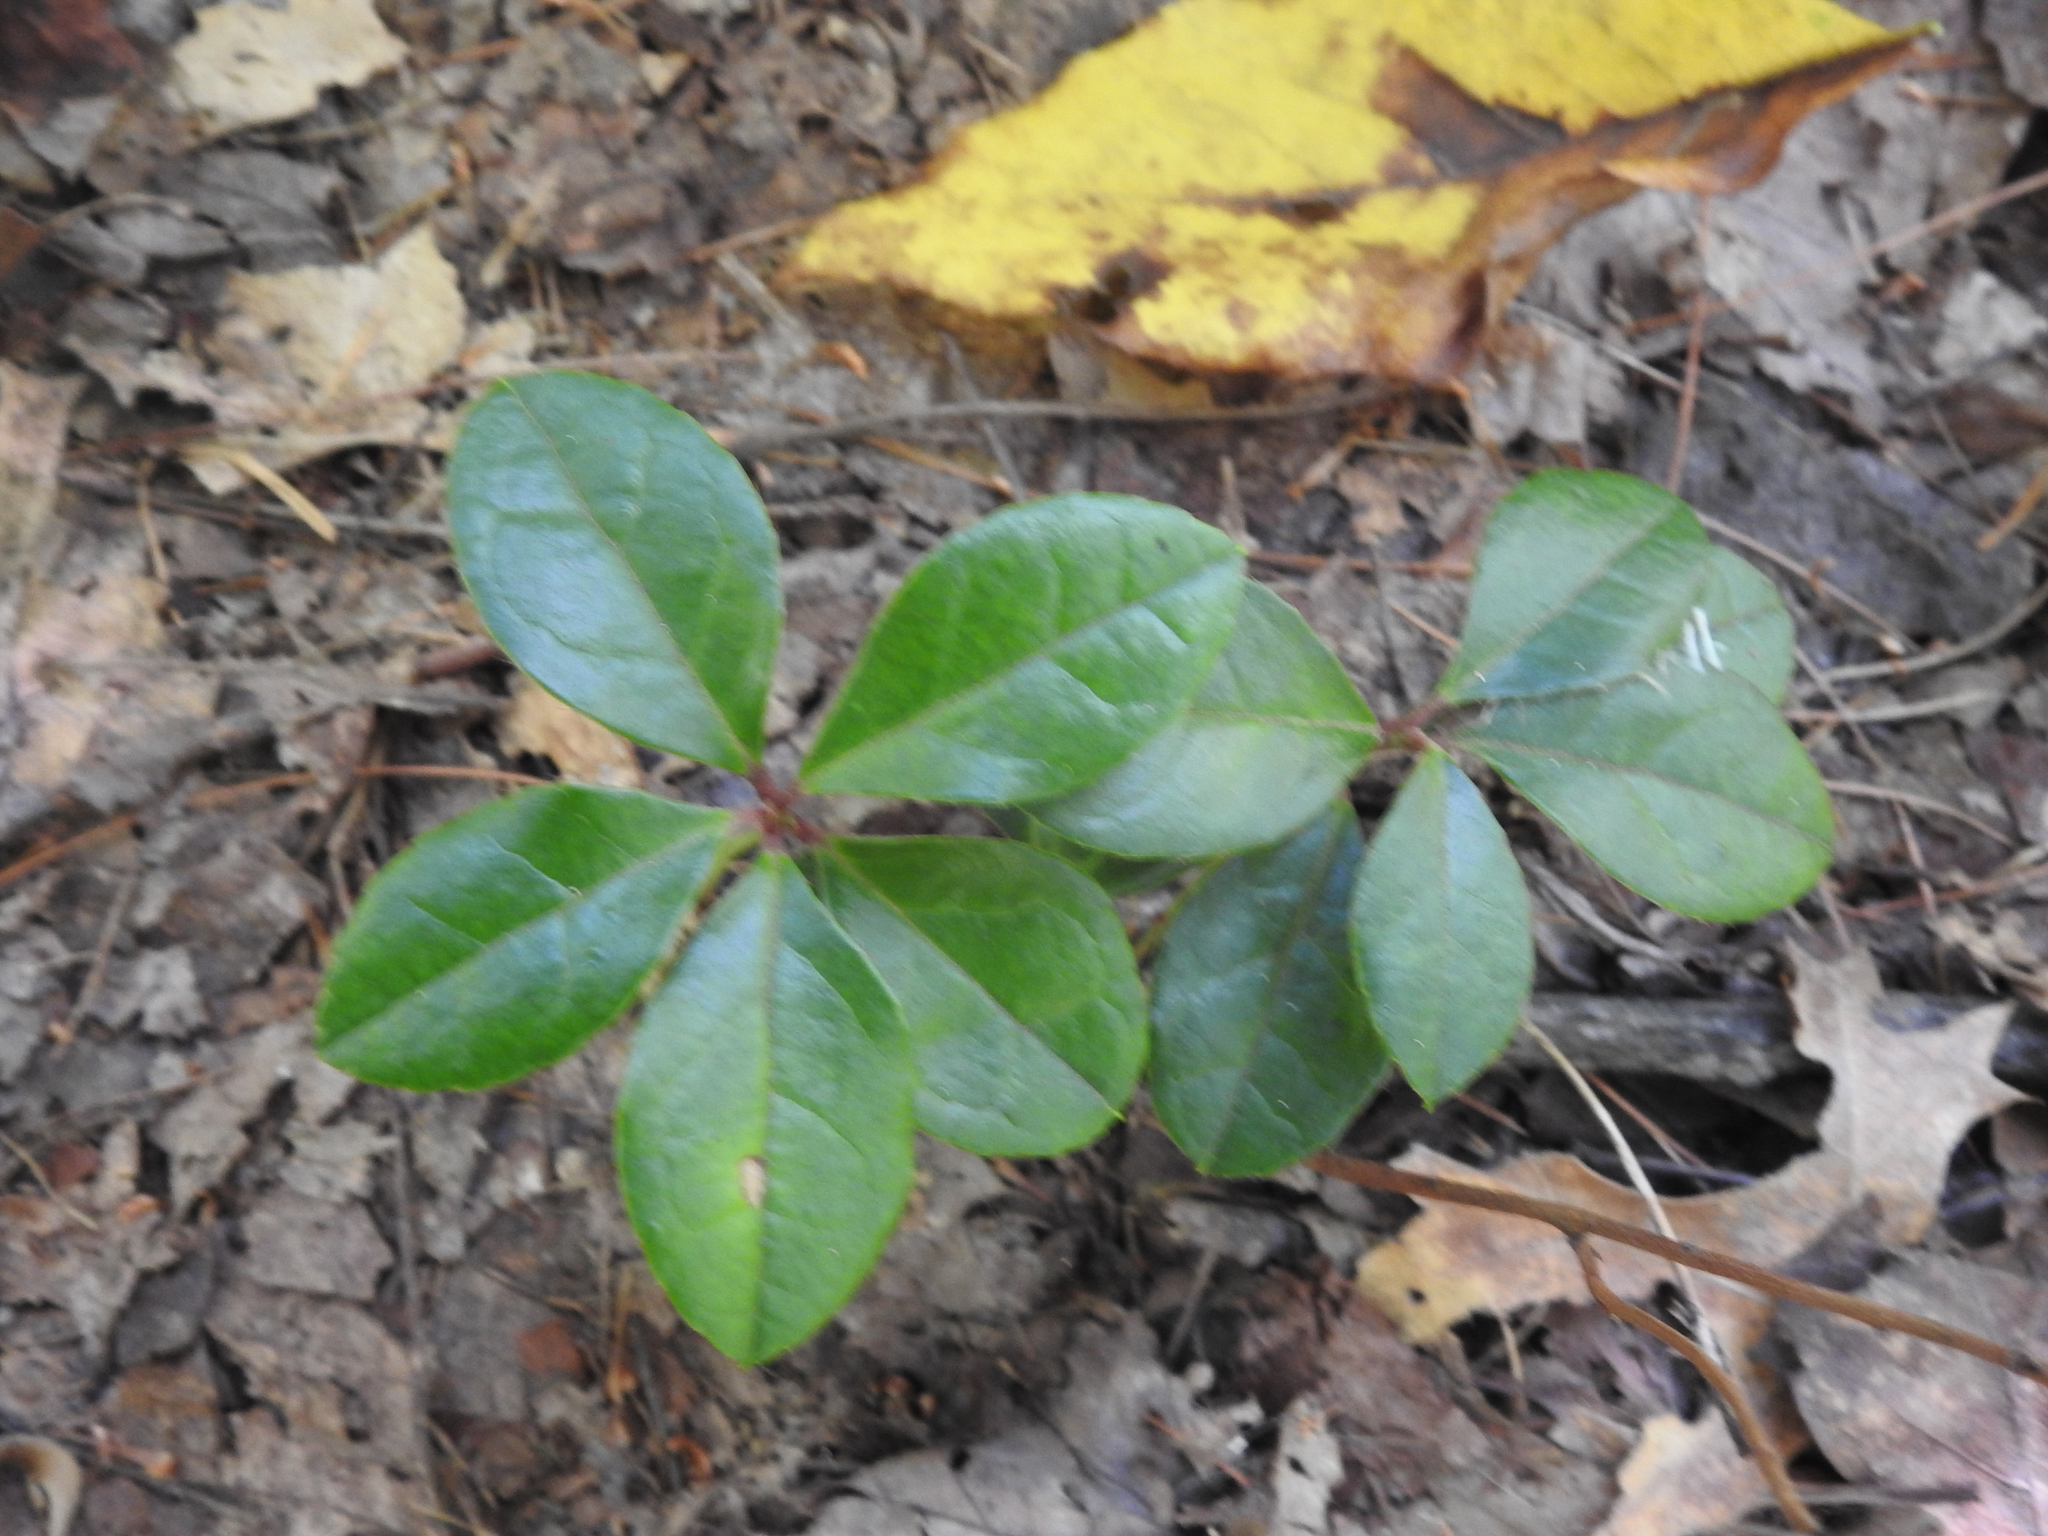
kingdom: Plantae
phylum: Tracheophyta
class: Magnoliopsida
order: Ericales
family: Ericaceae
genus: Gaultheria
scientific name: Gaultheria procumbens
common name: Checkerberry
